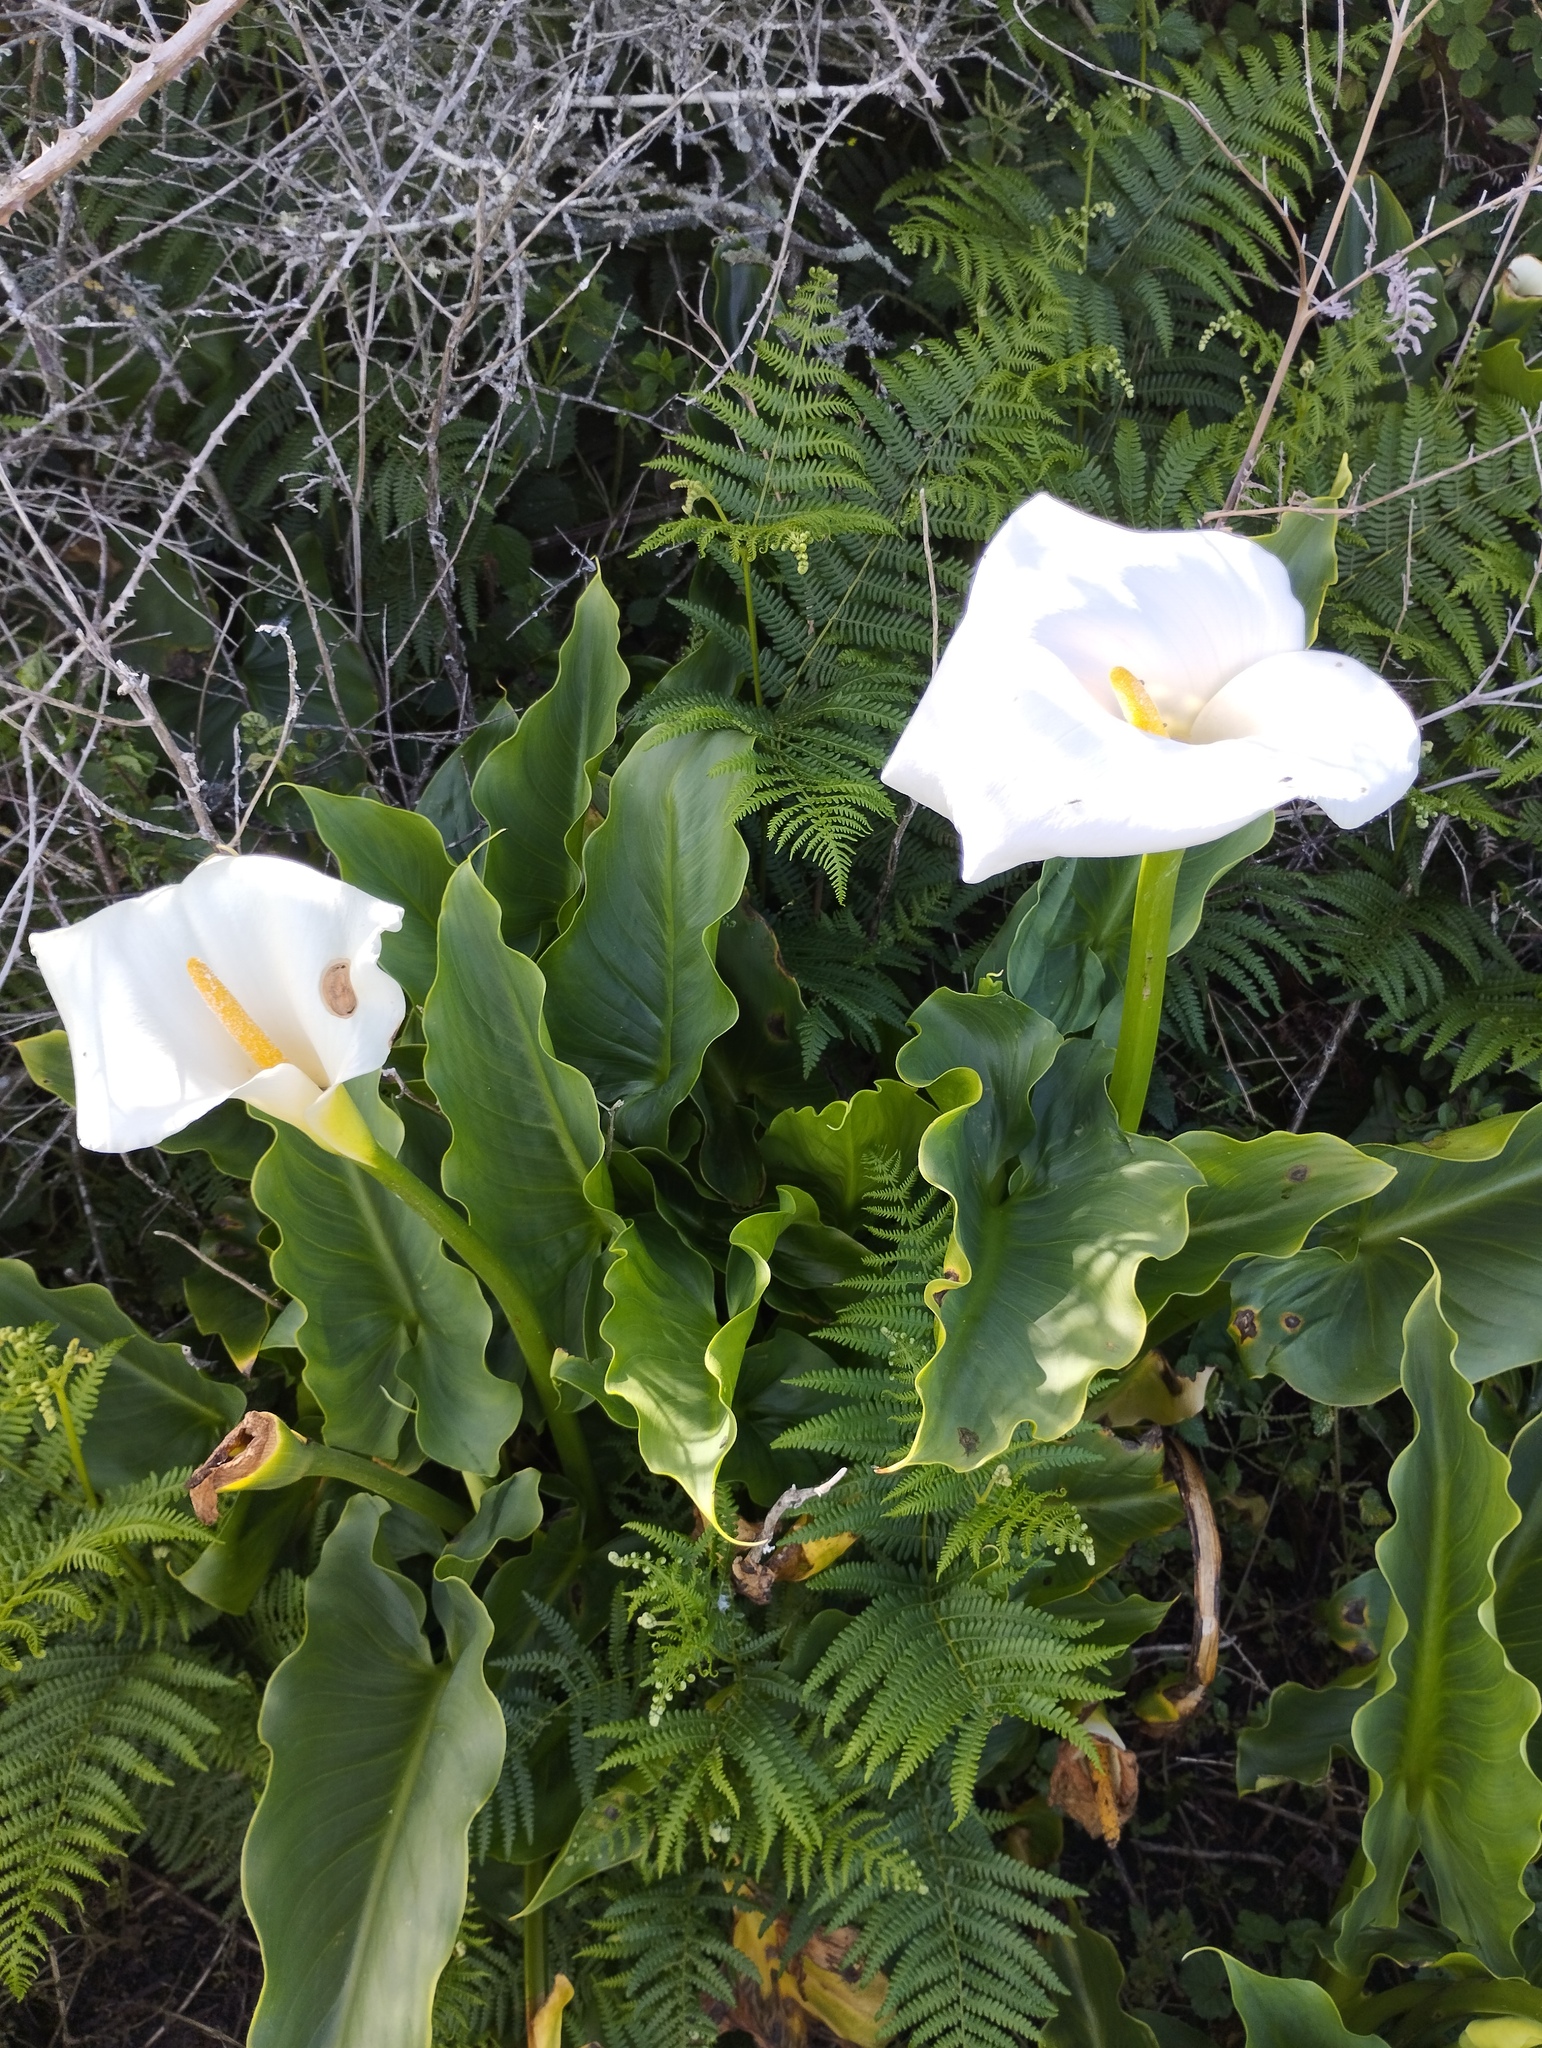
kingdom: Plantae
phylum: Tracheophyta
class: Liliopsida
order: Alismatales
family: Araceae
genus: Zantedeschia
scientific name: Zantedeschia aethiopica
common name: Altar-lily
